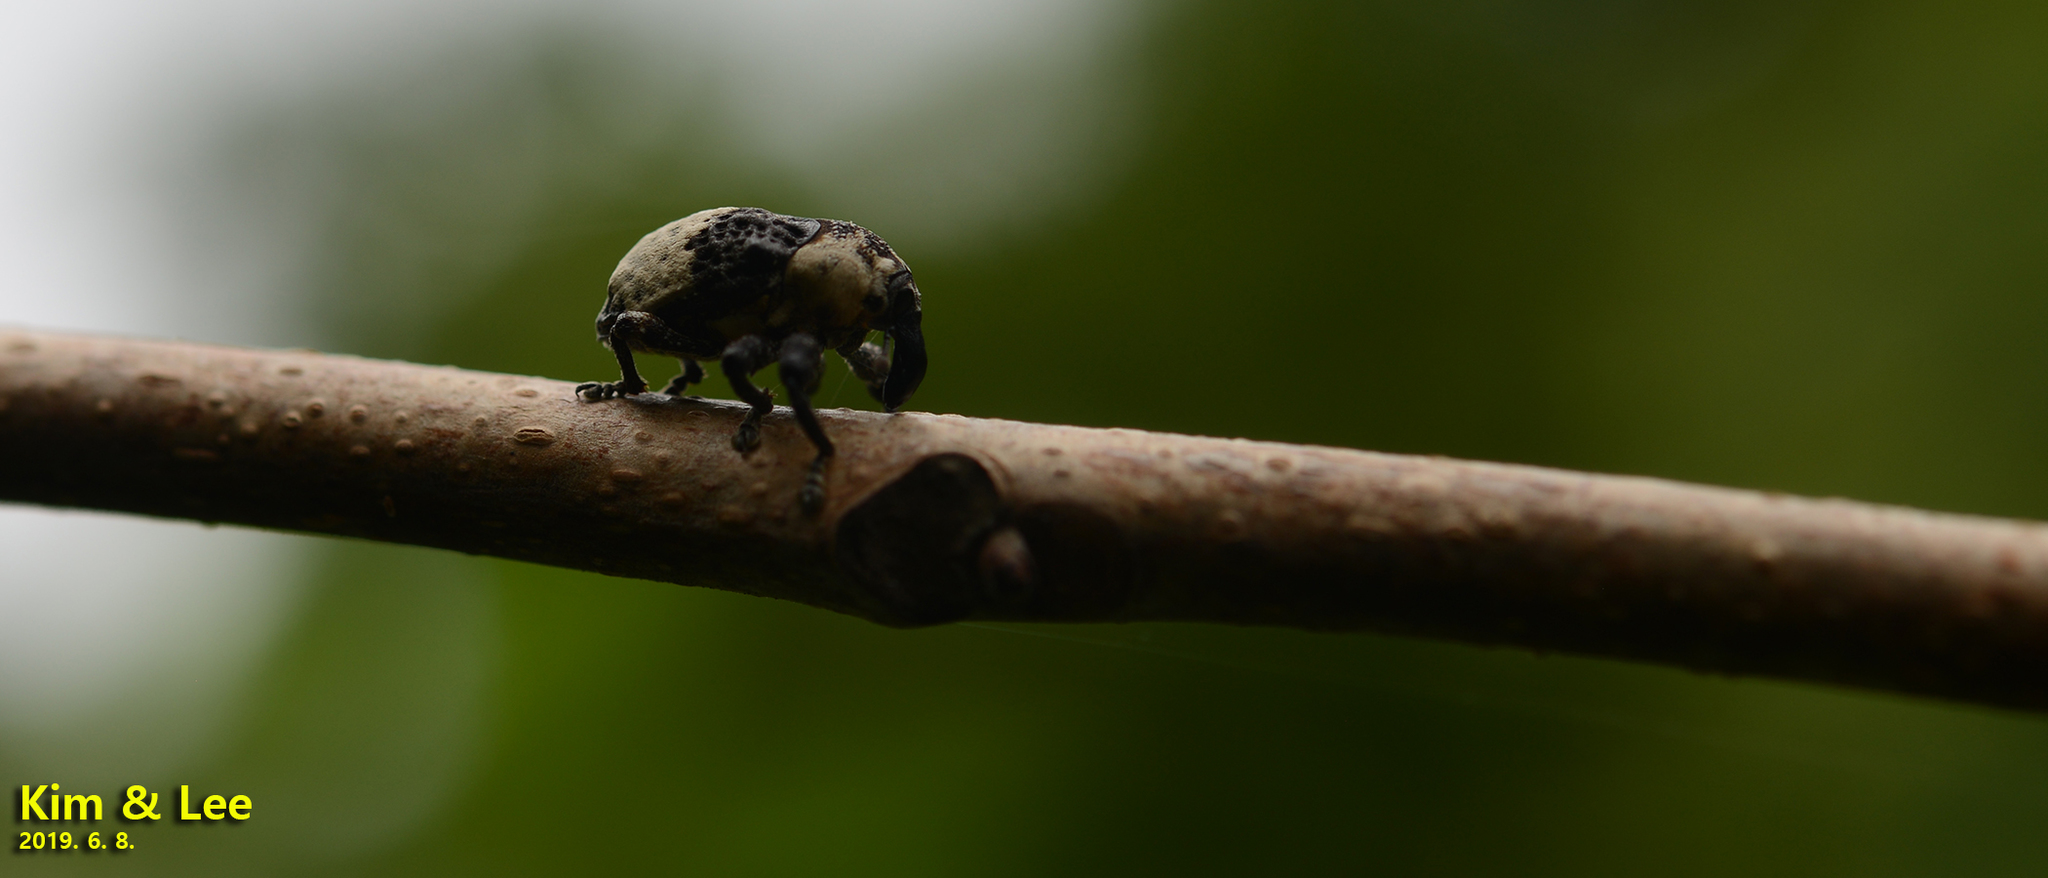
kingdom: Animalia
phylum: Arthropoda
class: Insecta
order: Coleoptera
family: Curculionidae
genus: Alcides
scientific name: Alcides trifidus
